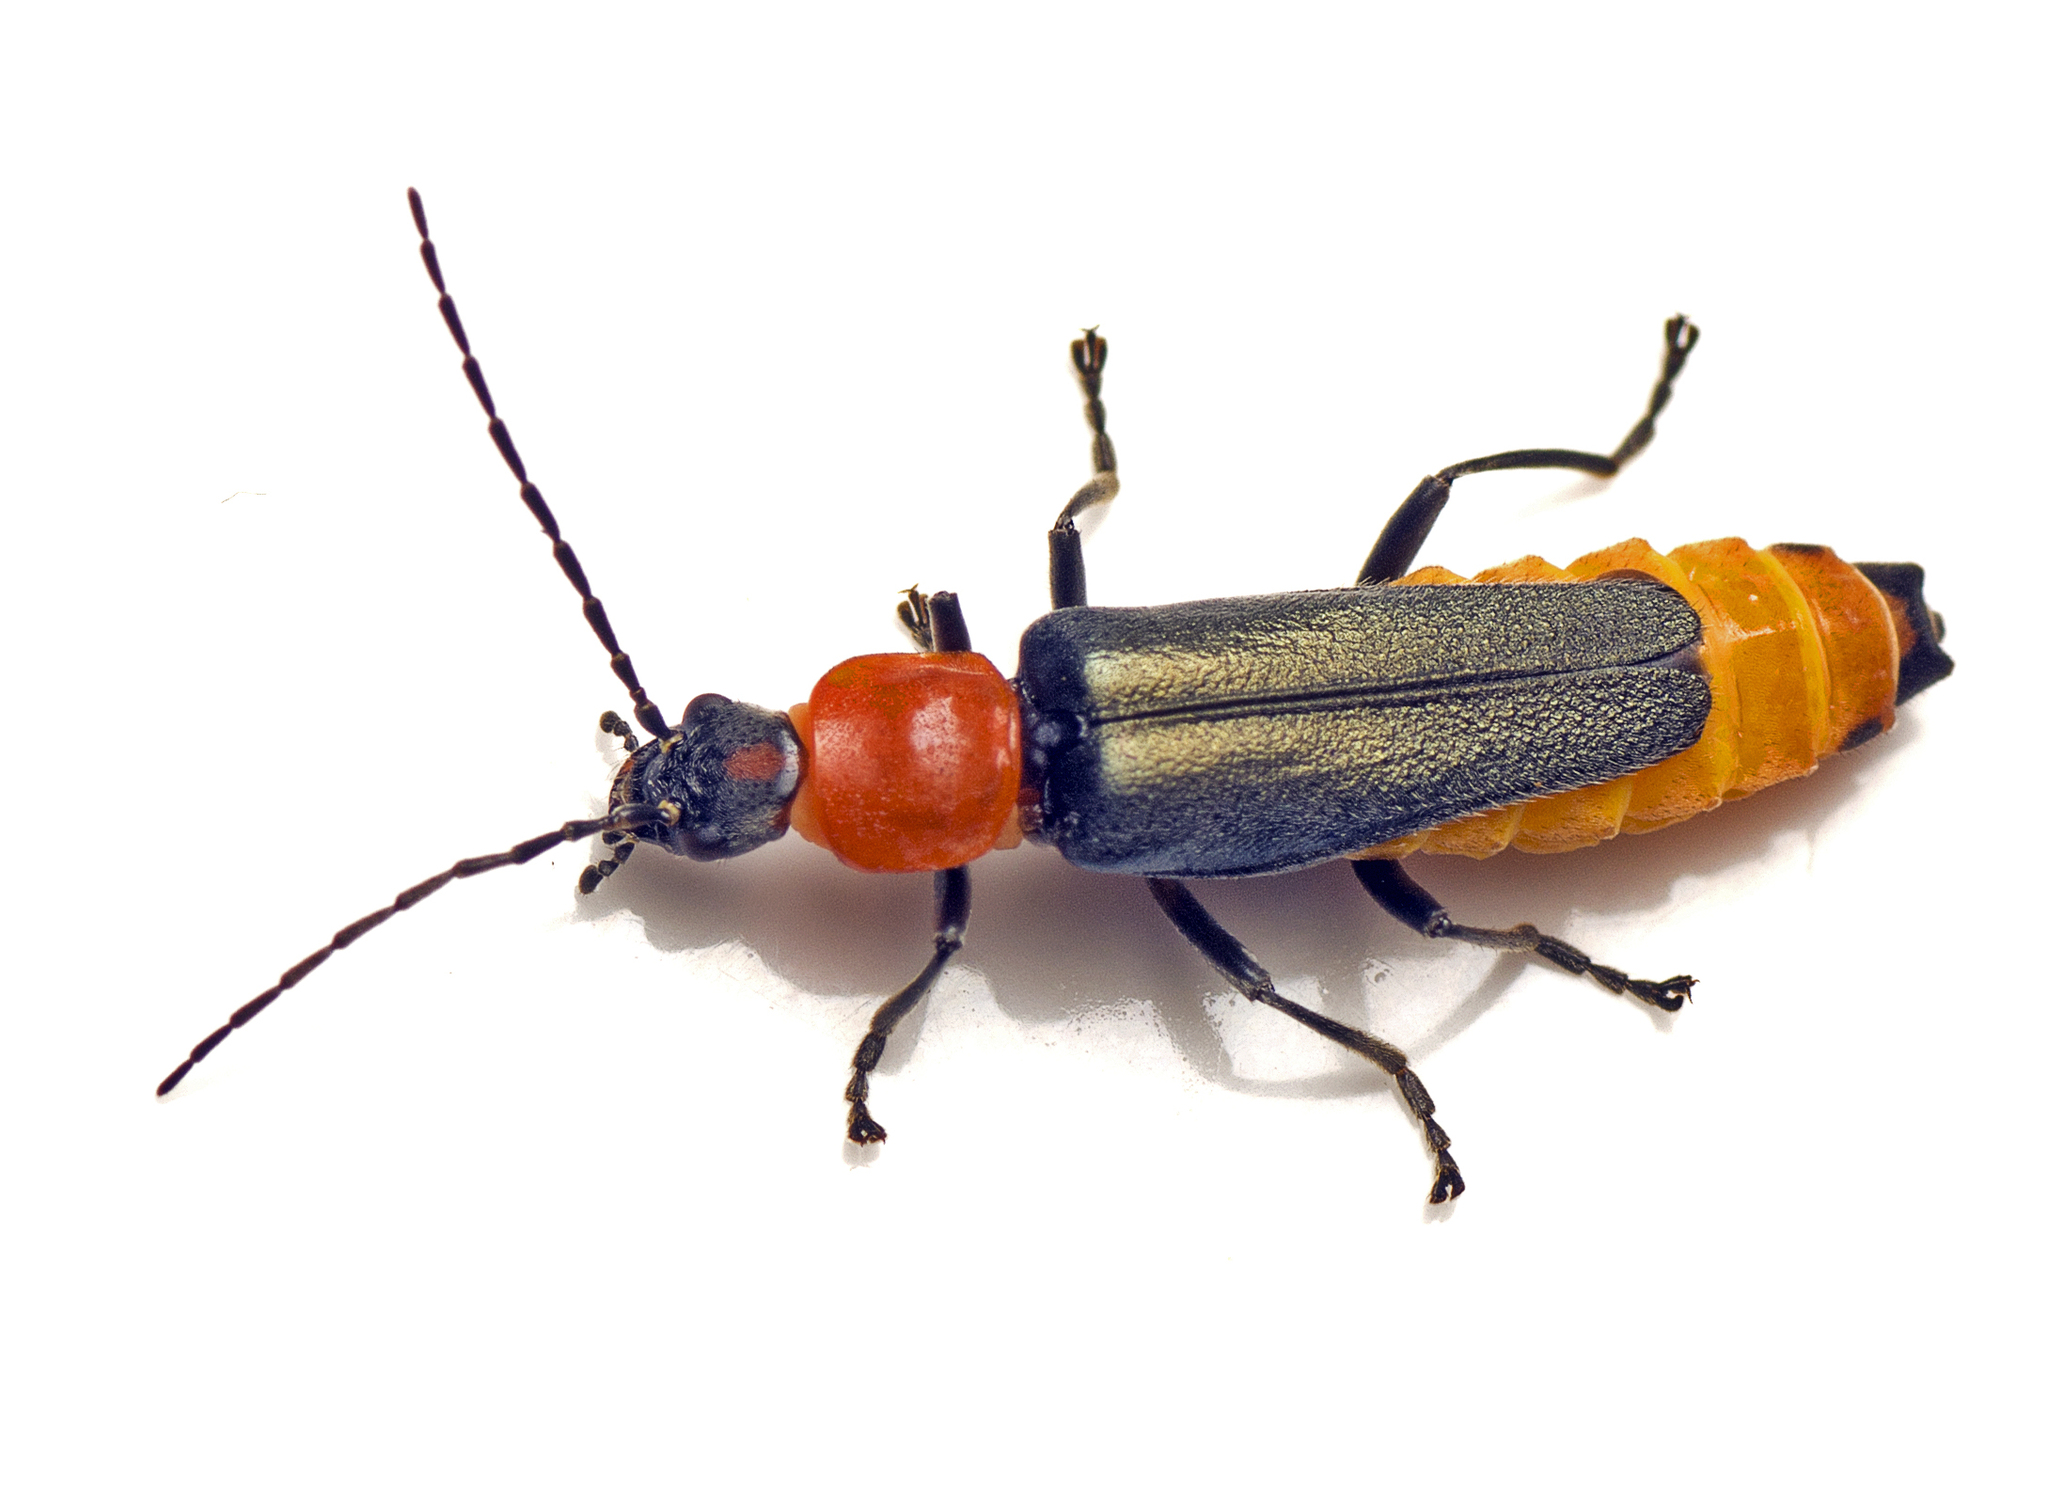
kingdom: Animalia
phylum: Arthropoda
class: Insecta
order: Coleoptera
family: Cantharidae
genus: Chauliognathus
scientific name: Chauliognathus
